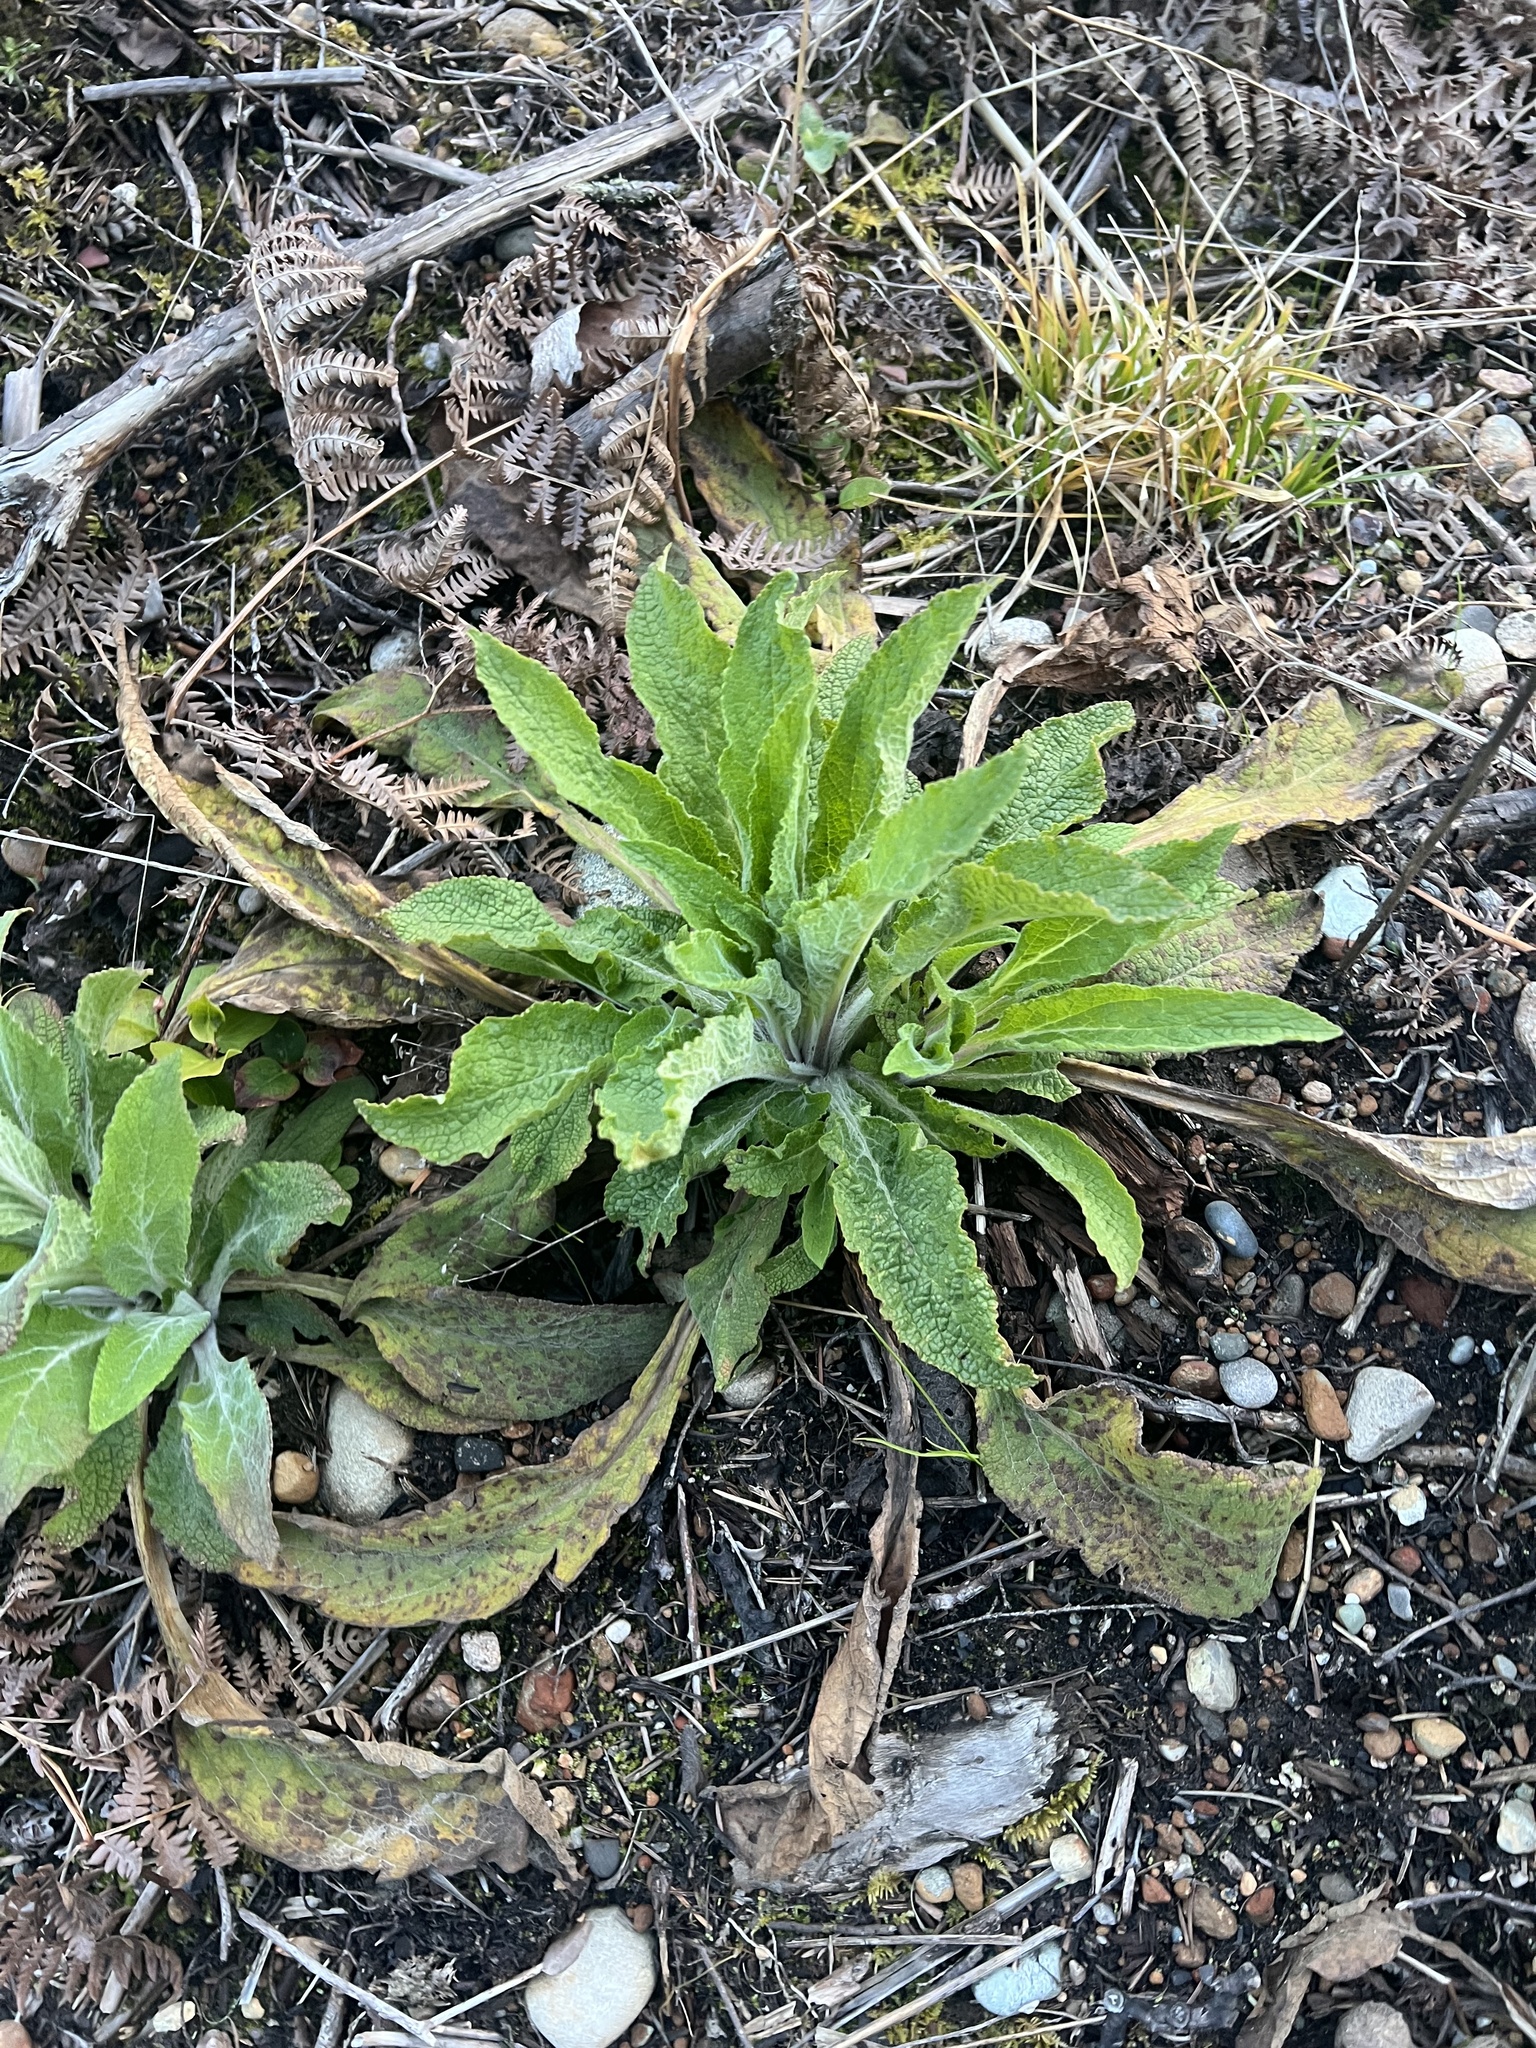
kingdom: Plantae
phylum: Tracheophyta
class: Magnoliopsida
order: Lamiales
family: Plantaginaceae
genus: Digitalis
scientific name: Digitalis purpurea
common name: Foxglove
